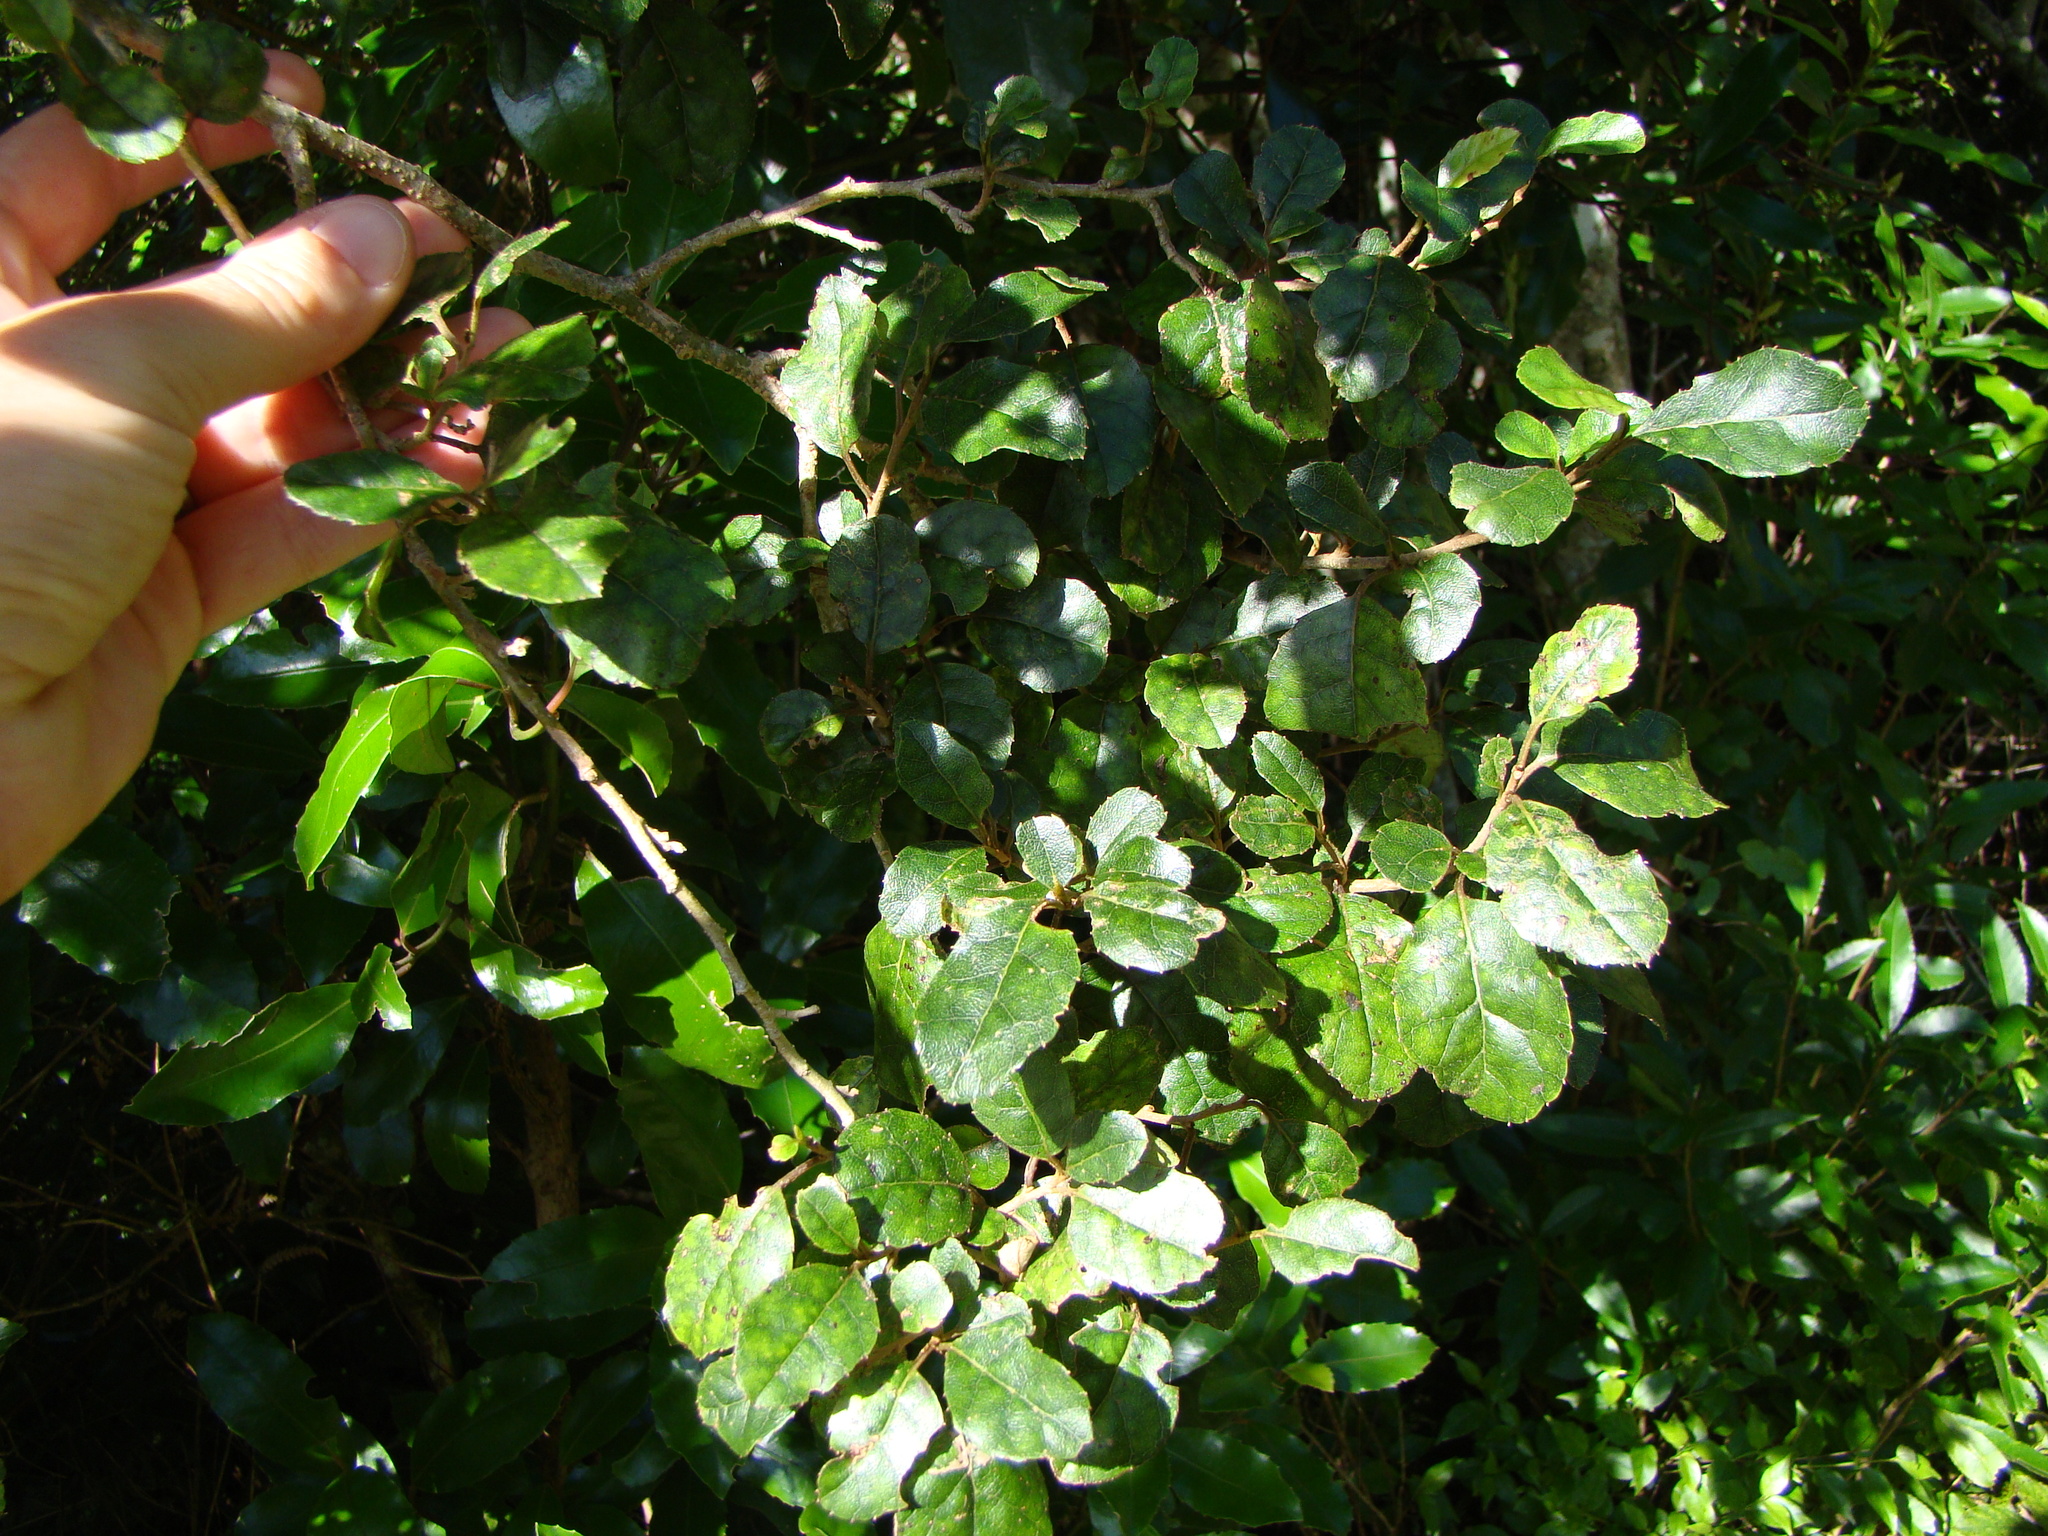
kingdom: Plantae
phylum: Tracheophyta
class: Magnoliopsida
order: Asterales
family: Rousseaceae
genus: Carpodetus
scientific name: Carpodetus serratus
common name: White mapau
